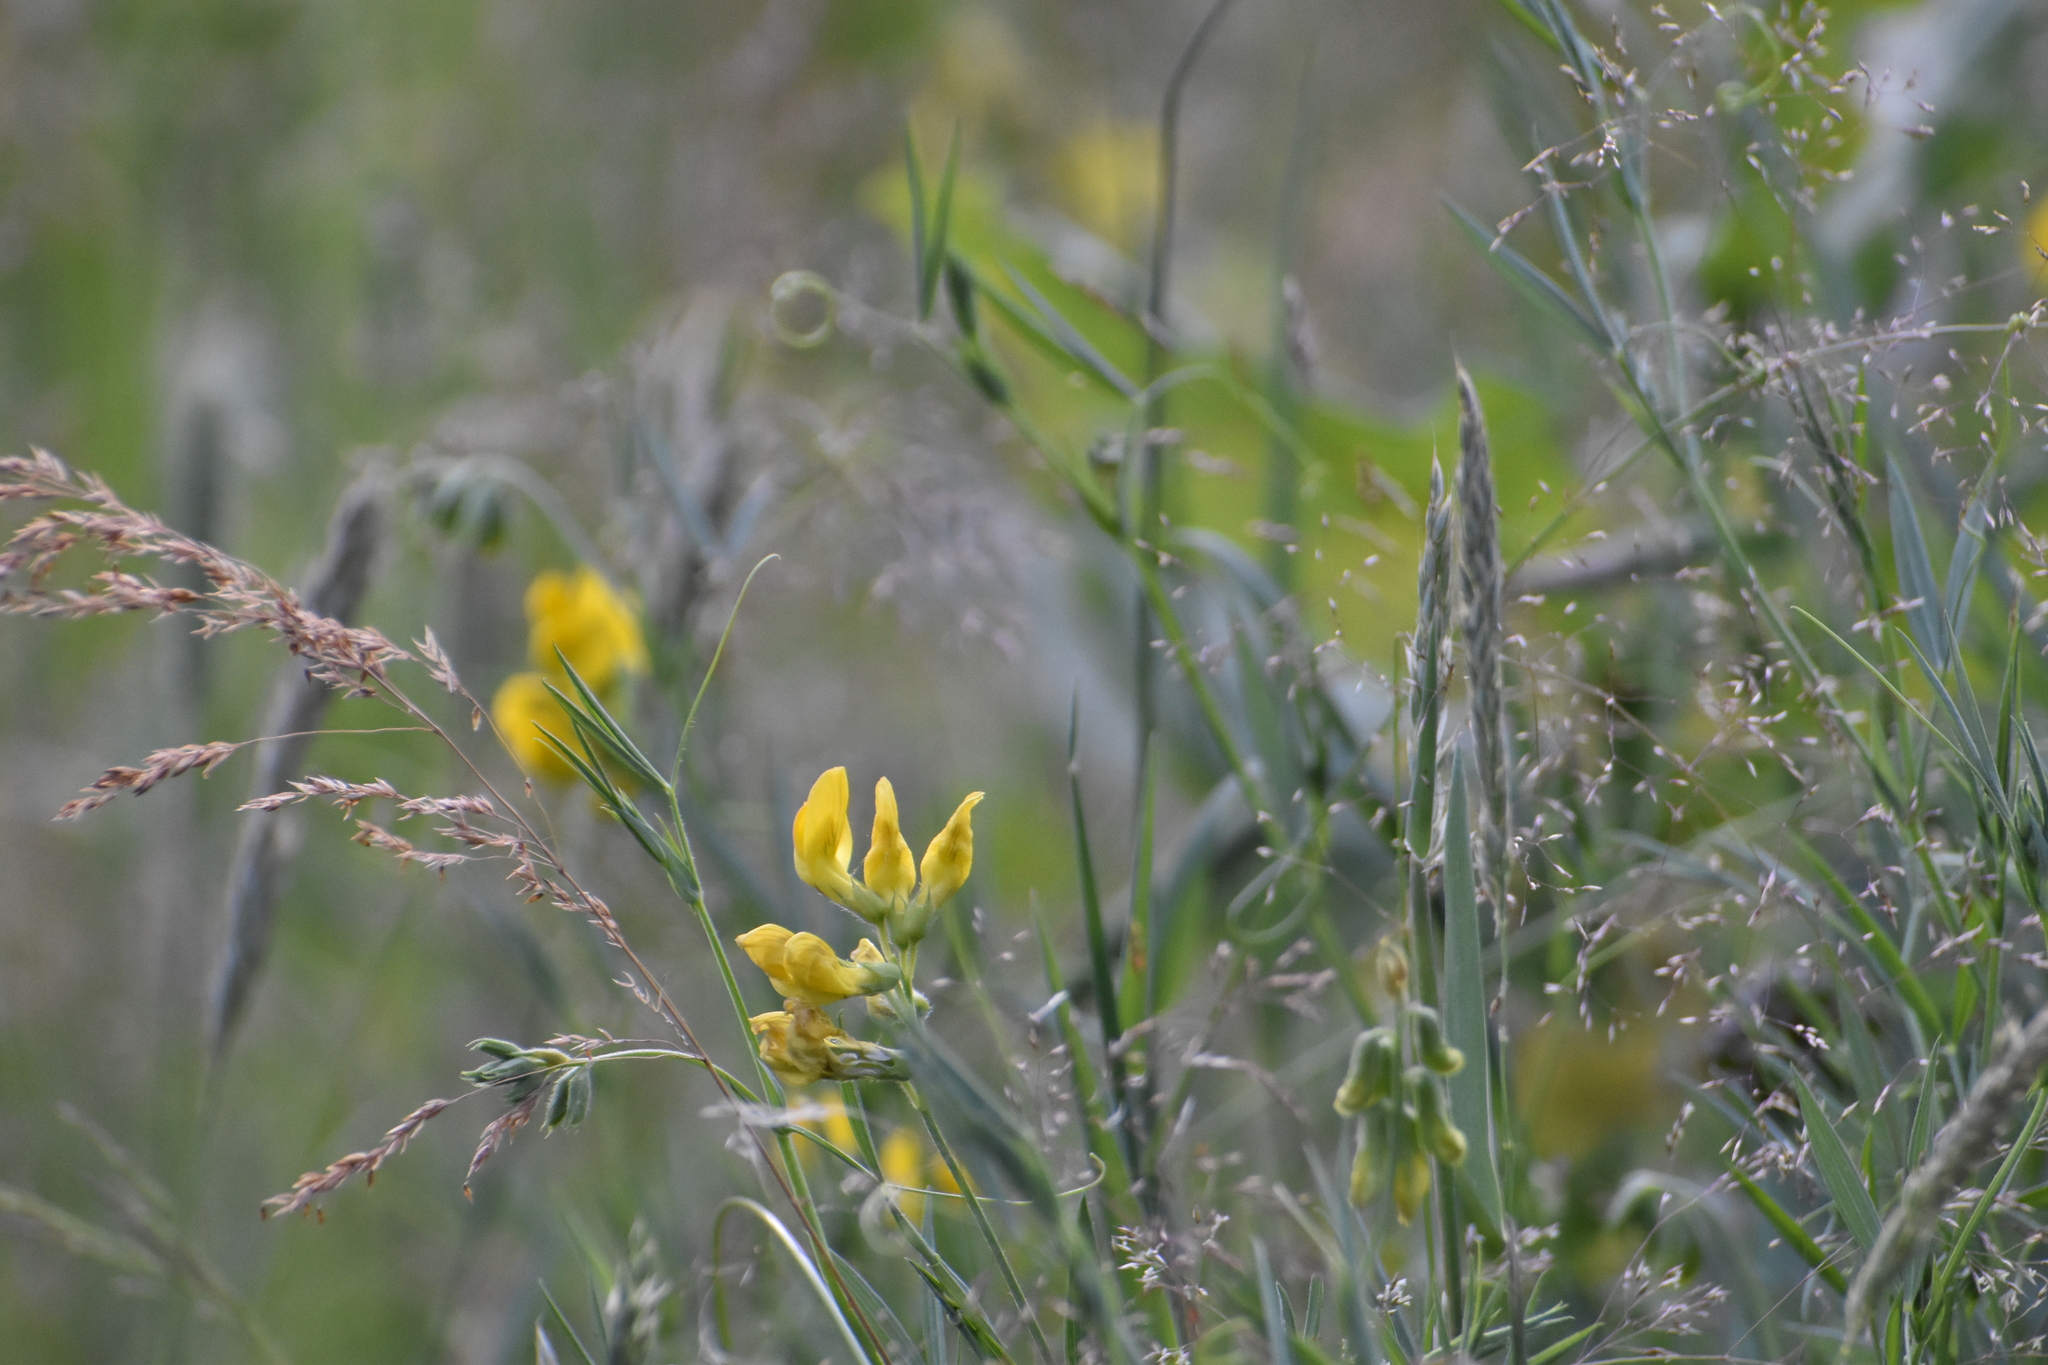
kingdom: Plantae
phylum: Tracheophyta
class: Magnoliopsida
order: Fabales
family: Fabaceae
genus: Lathyrus
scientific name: Lathyrus pratensis
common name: Meadow vetchling
